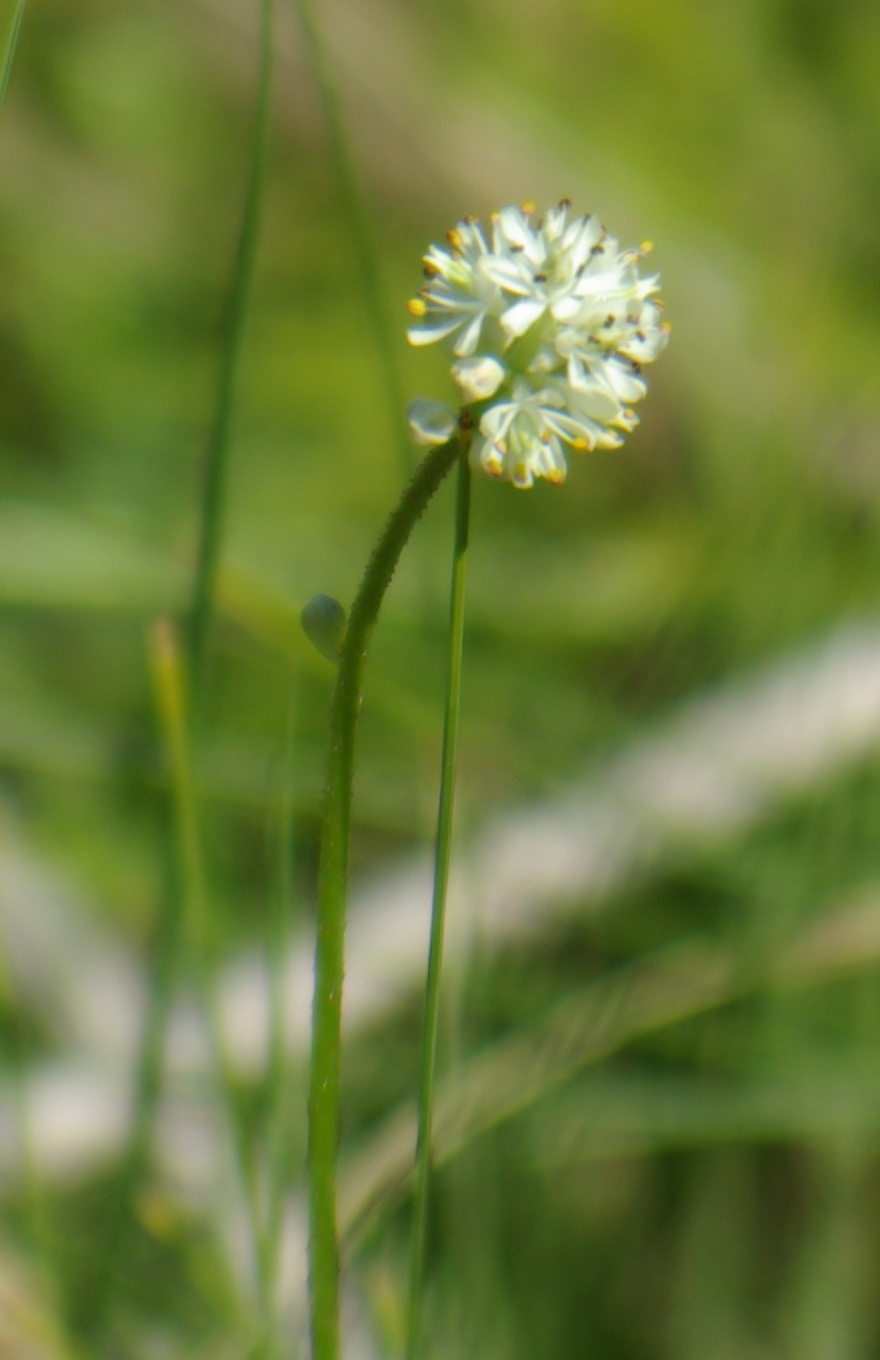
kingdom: Plantae
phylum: Tracheophyta
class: Liliopsida
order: Alismatales
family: Tofieldiaceae
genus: Triantha
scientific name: Triantha glutinosa
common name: Glutinous tofieldia
